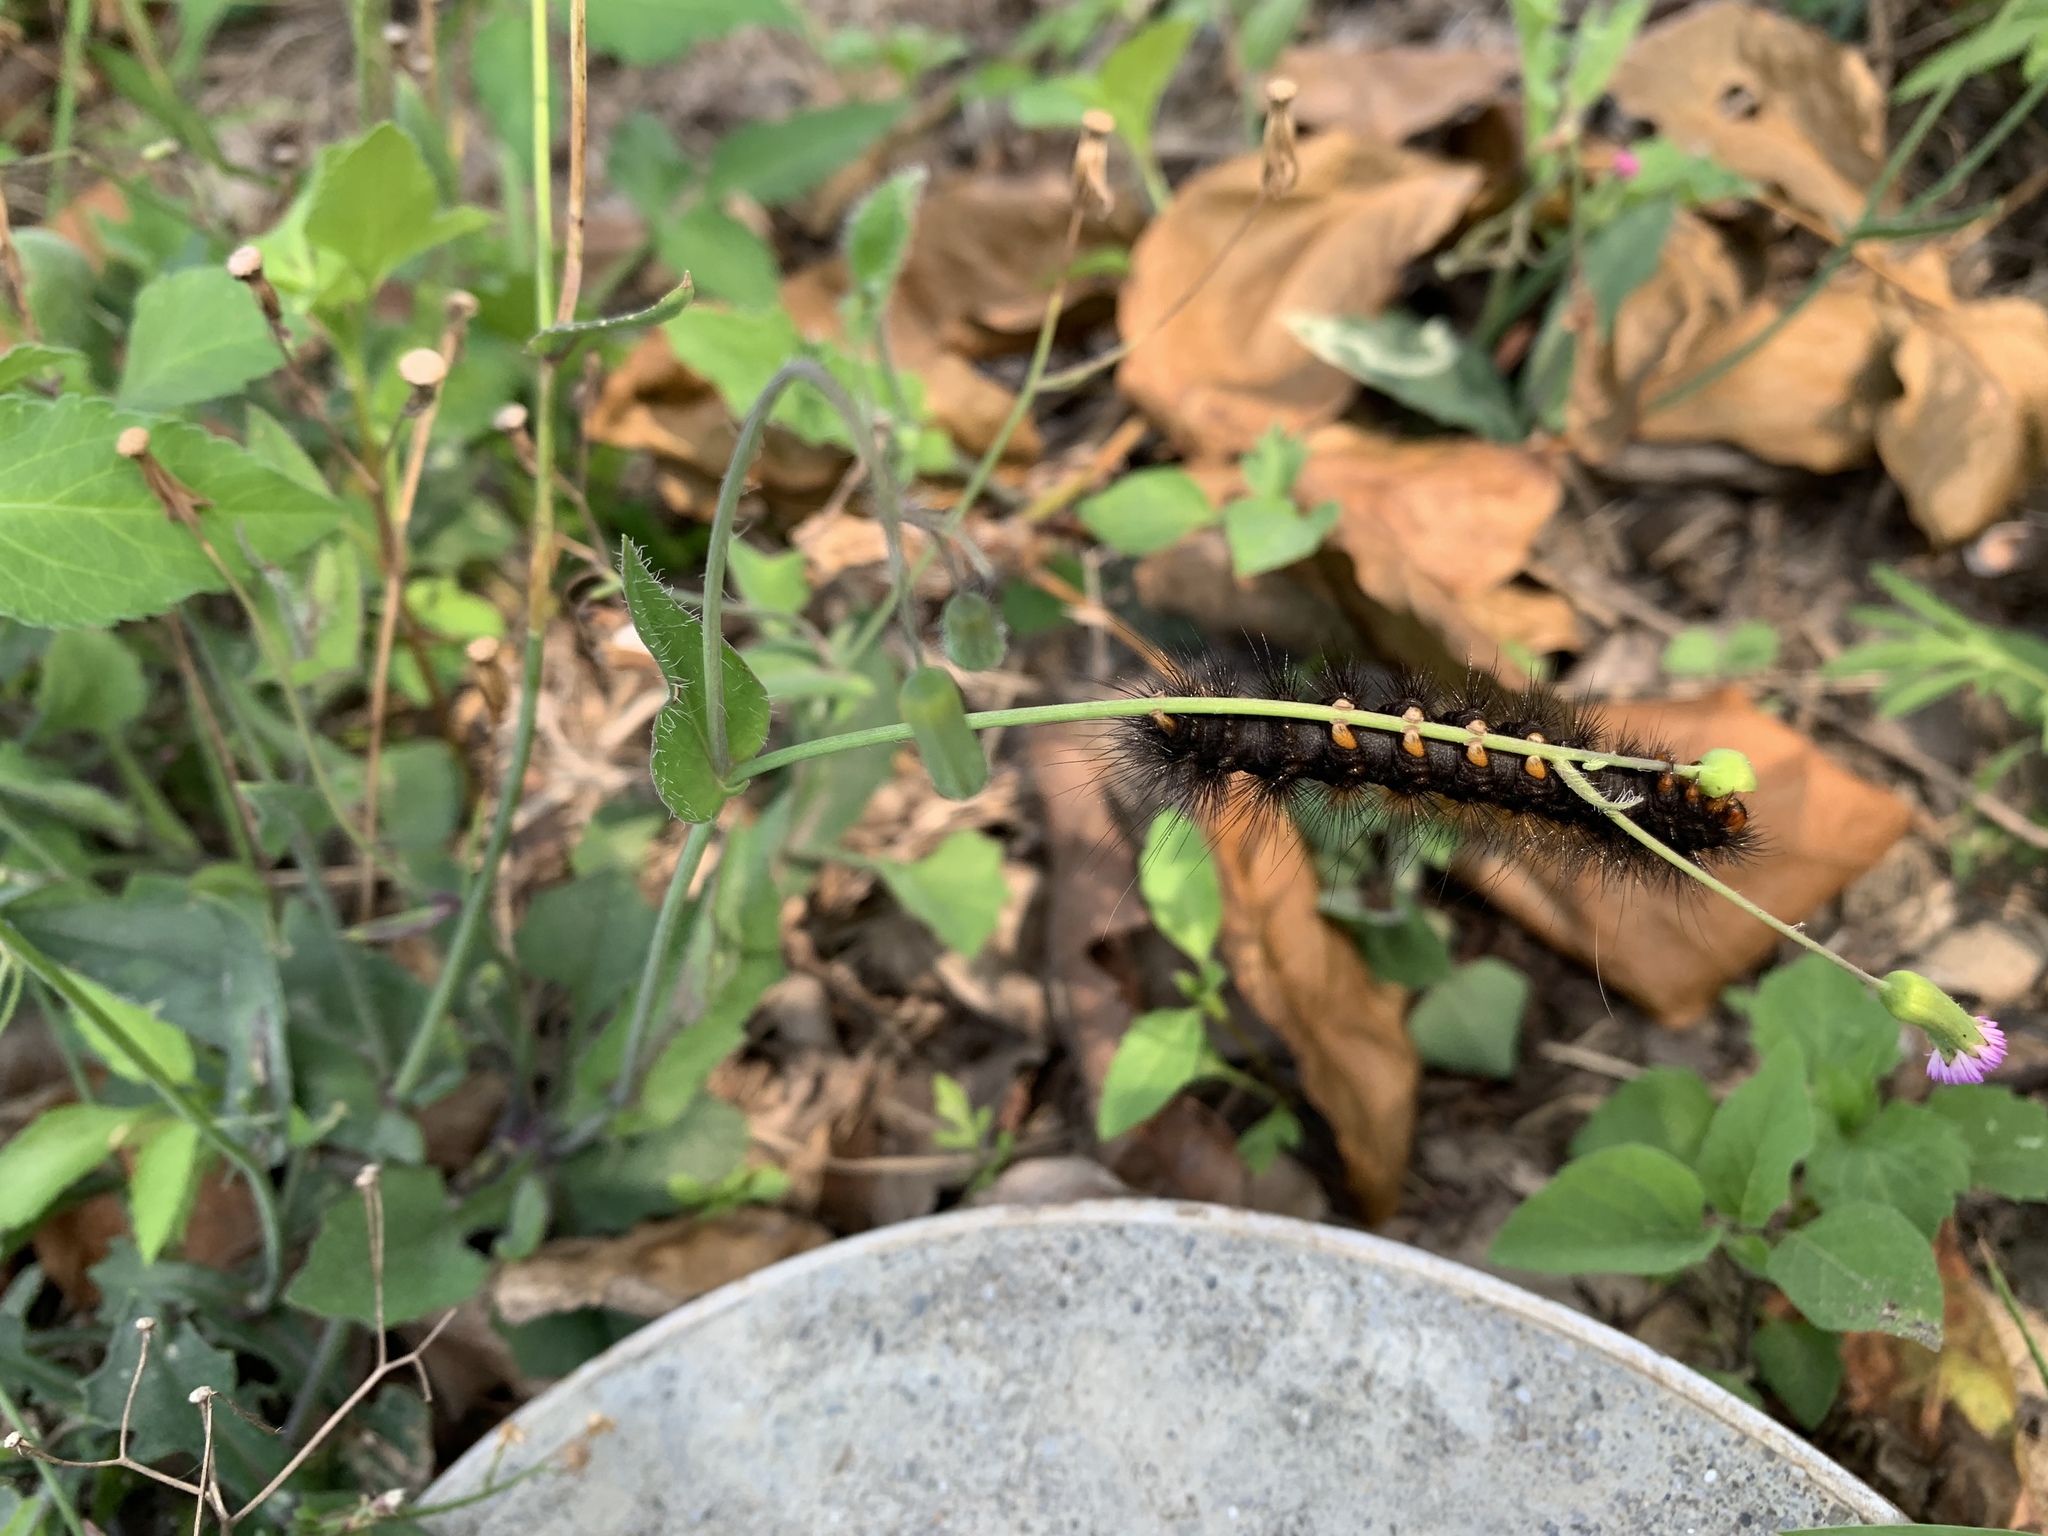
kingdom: Animalia
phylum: Arthropoda
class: Insecta
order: Lepidoptera
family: Erebidae
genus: Aloa
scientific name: Aloa lactinea
